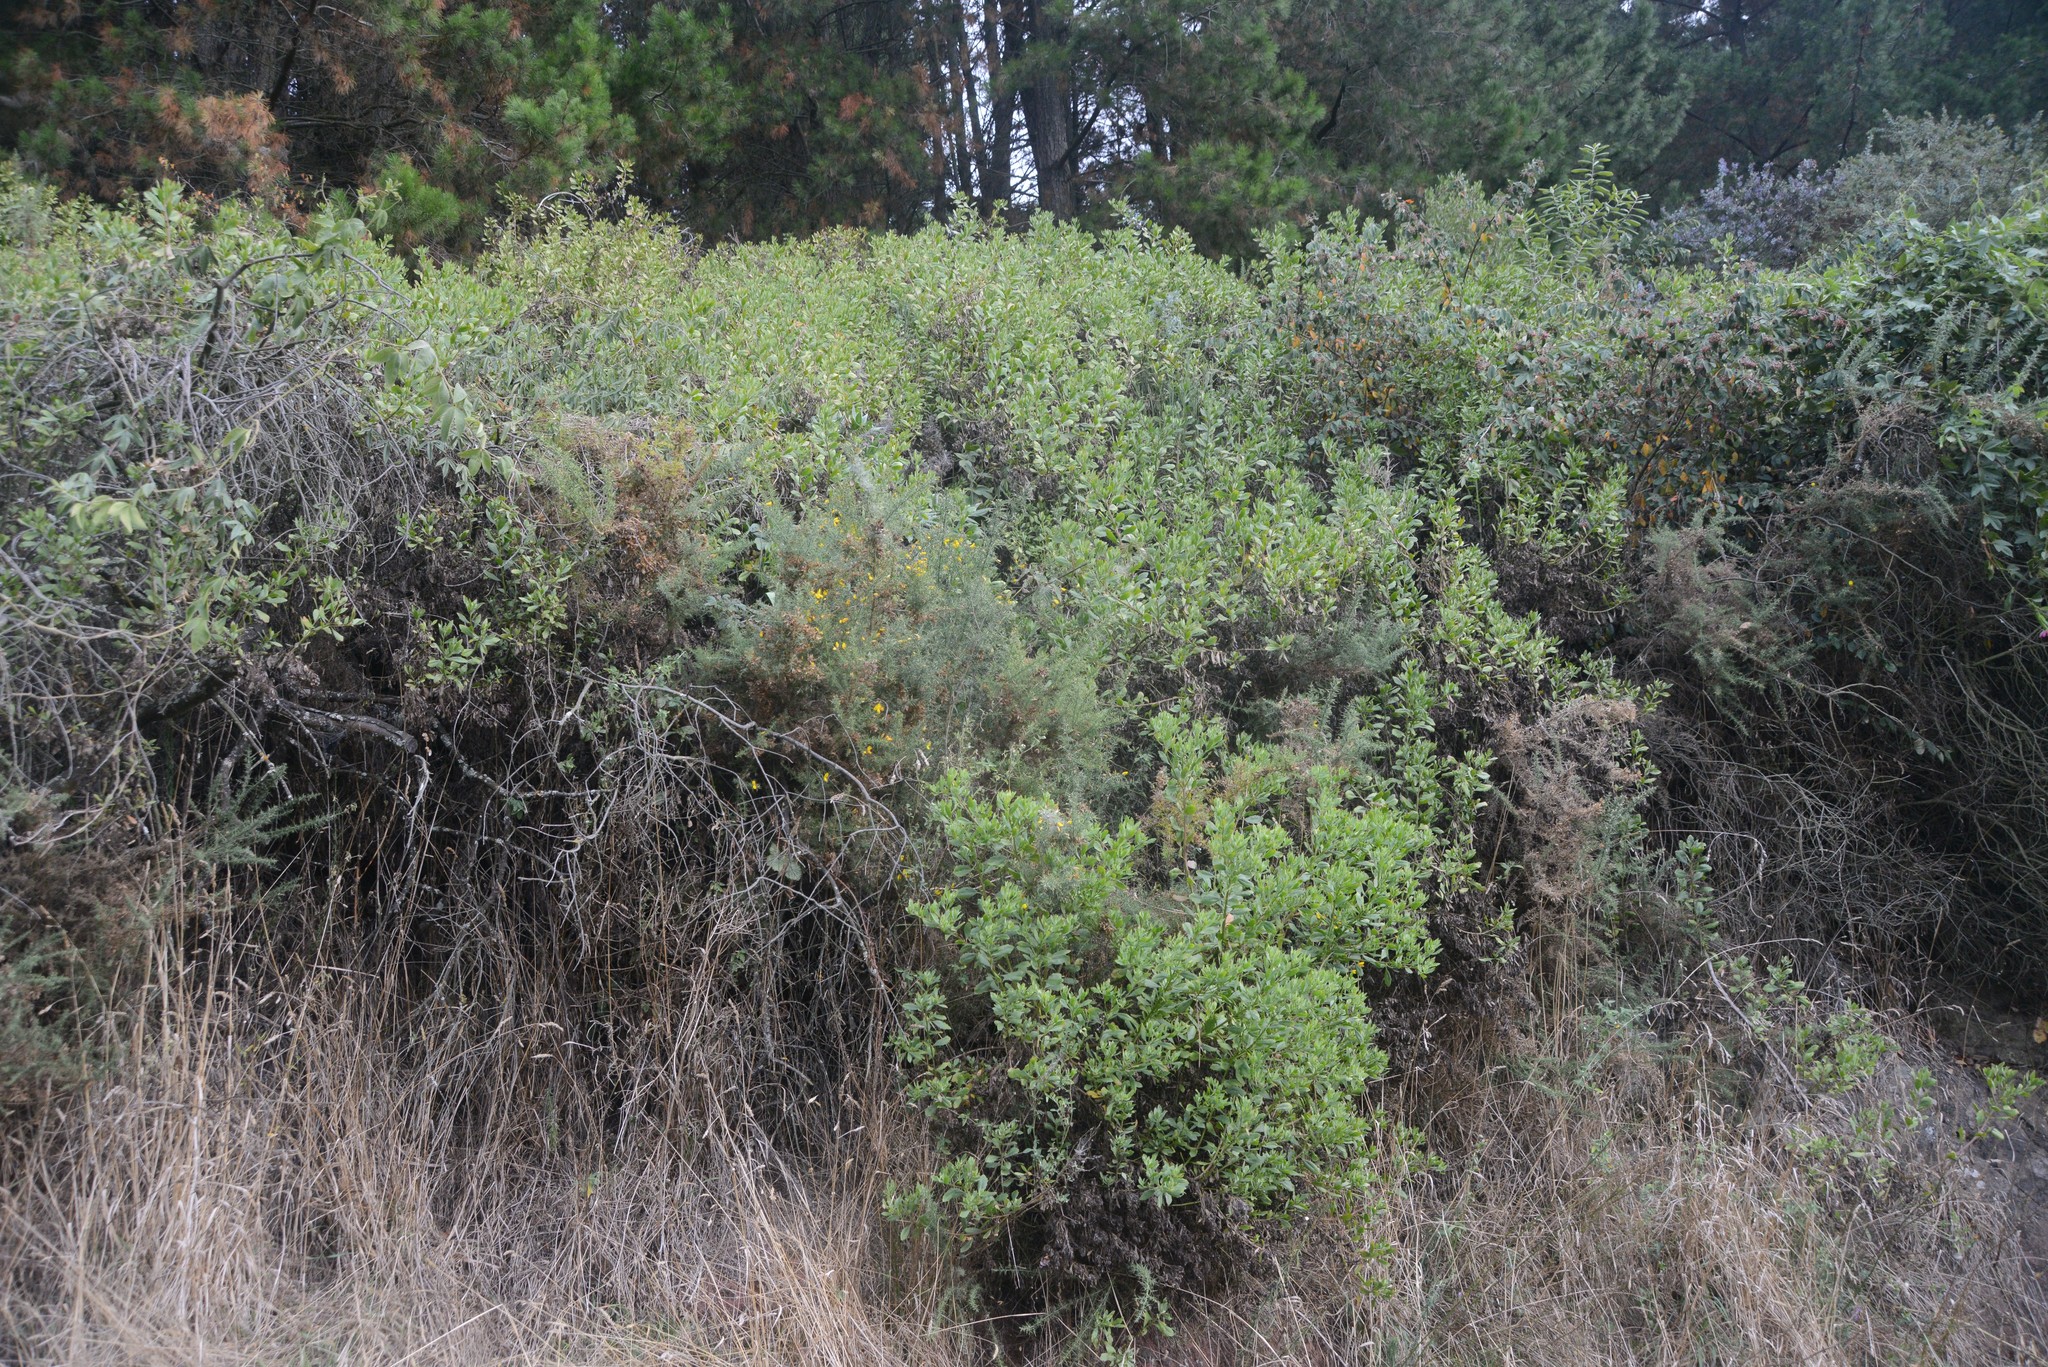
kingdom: Plantae
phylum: Tracheophyta
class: Magnoliopsida
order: Asterales
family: Asteraceae
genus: Osteospermum
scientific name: Osteospermum moniliferum
